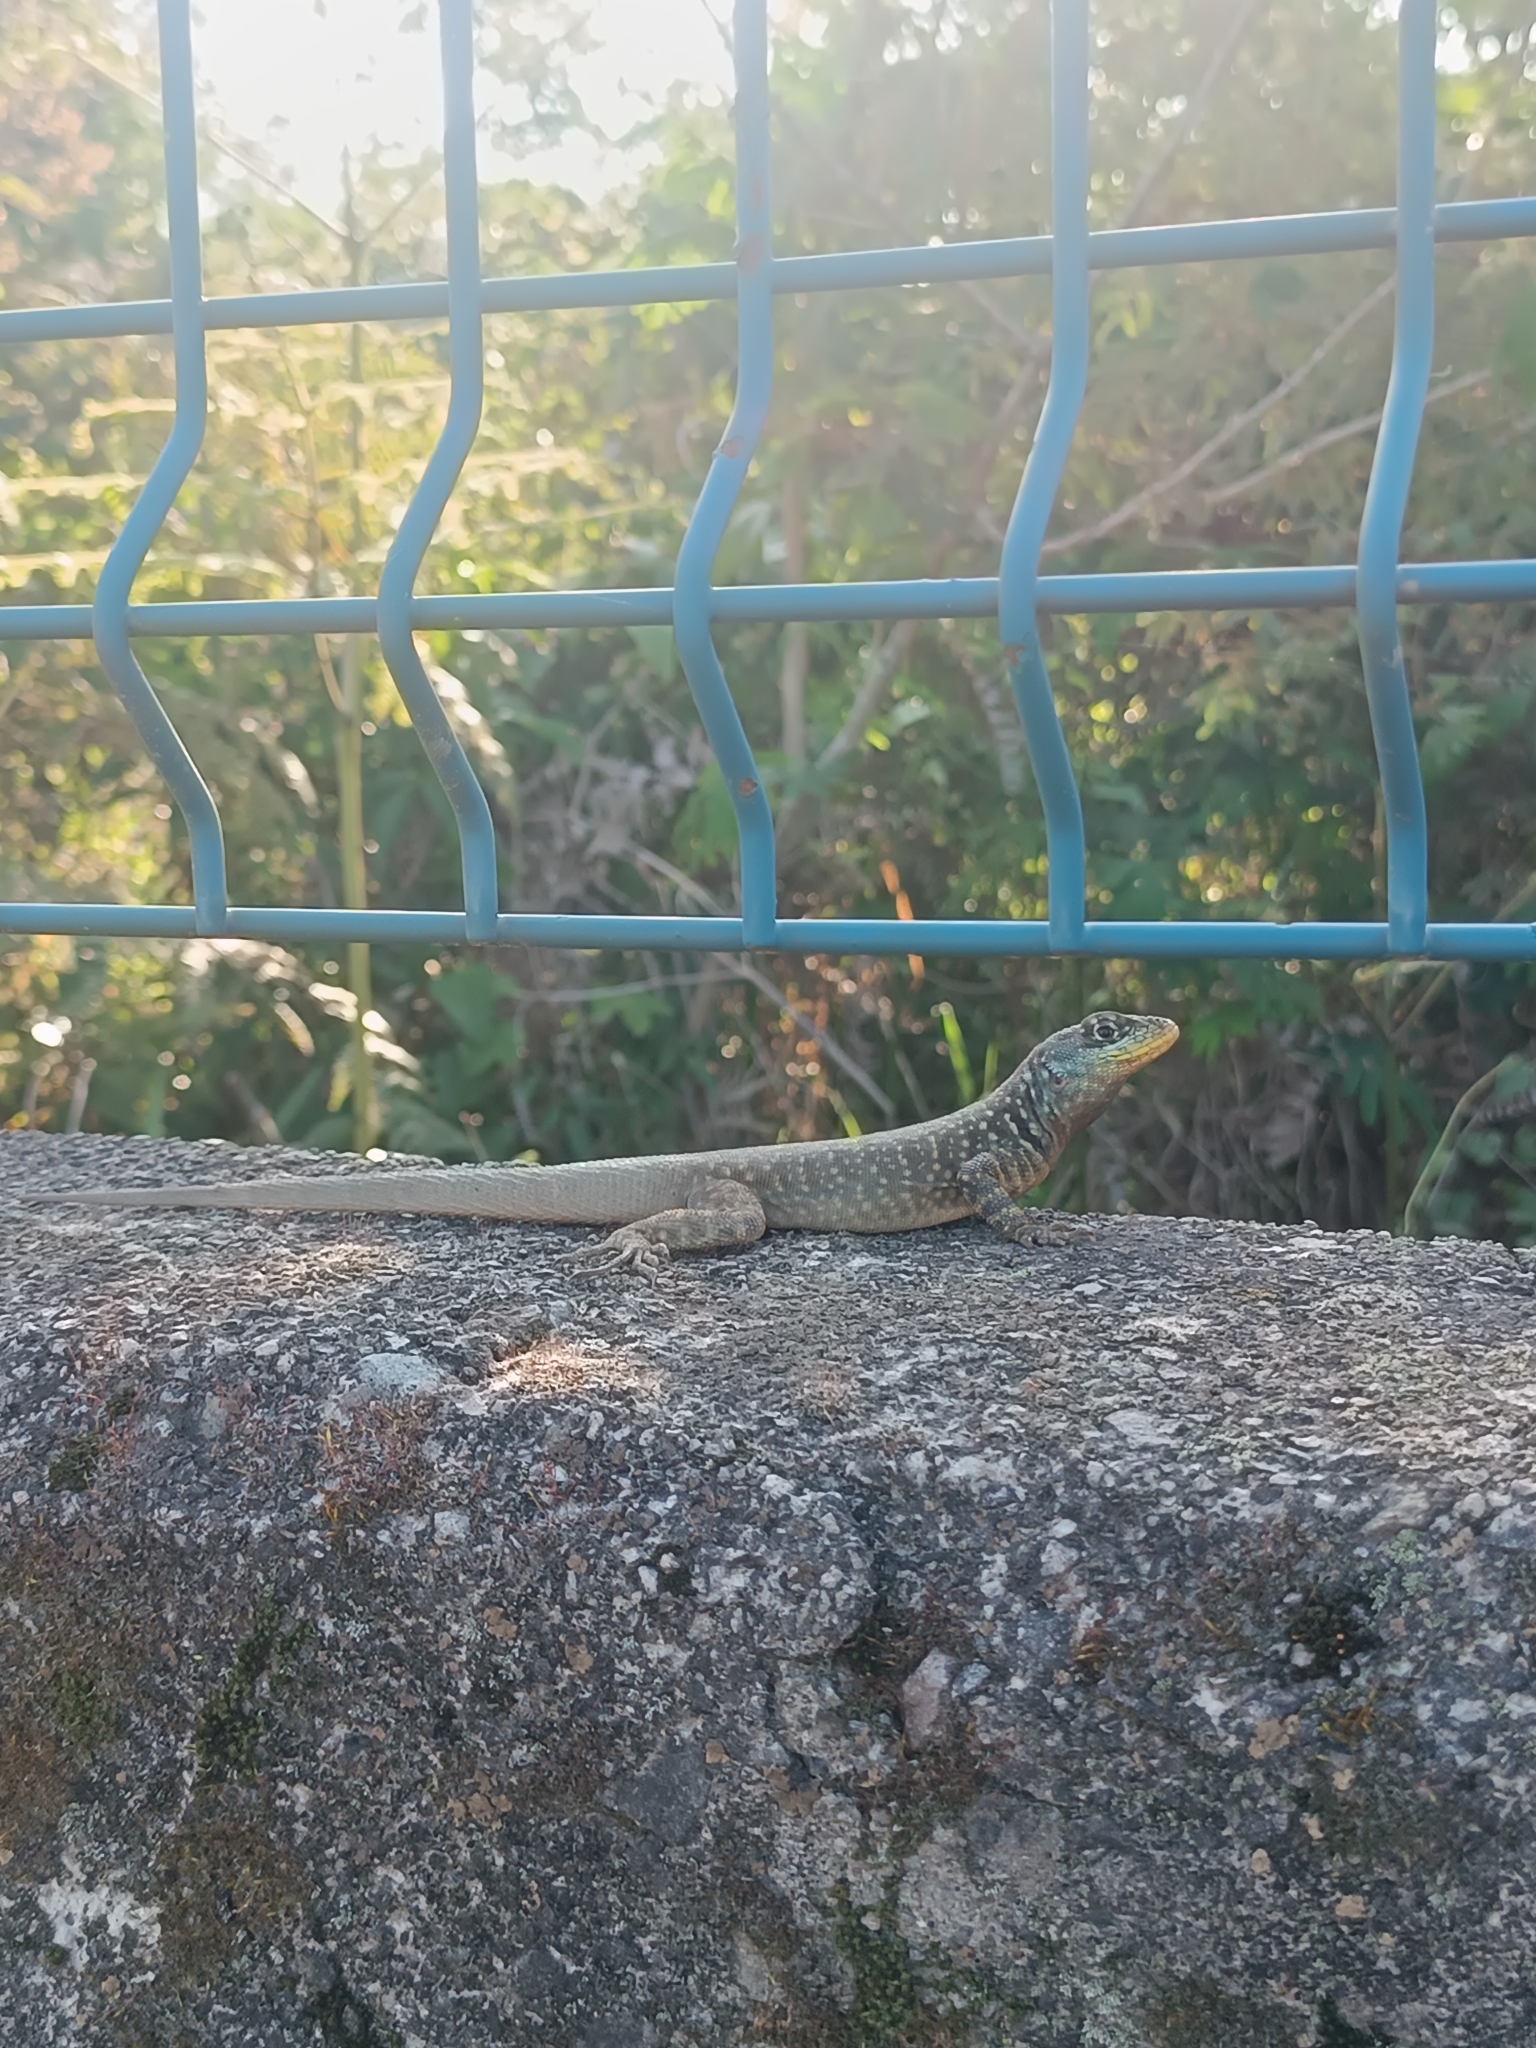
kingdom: Animalia
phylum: Chordata
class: Squamata
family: Tropiduridae
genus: Tropidurus
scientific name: Tropidurus catalanensis
